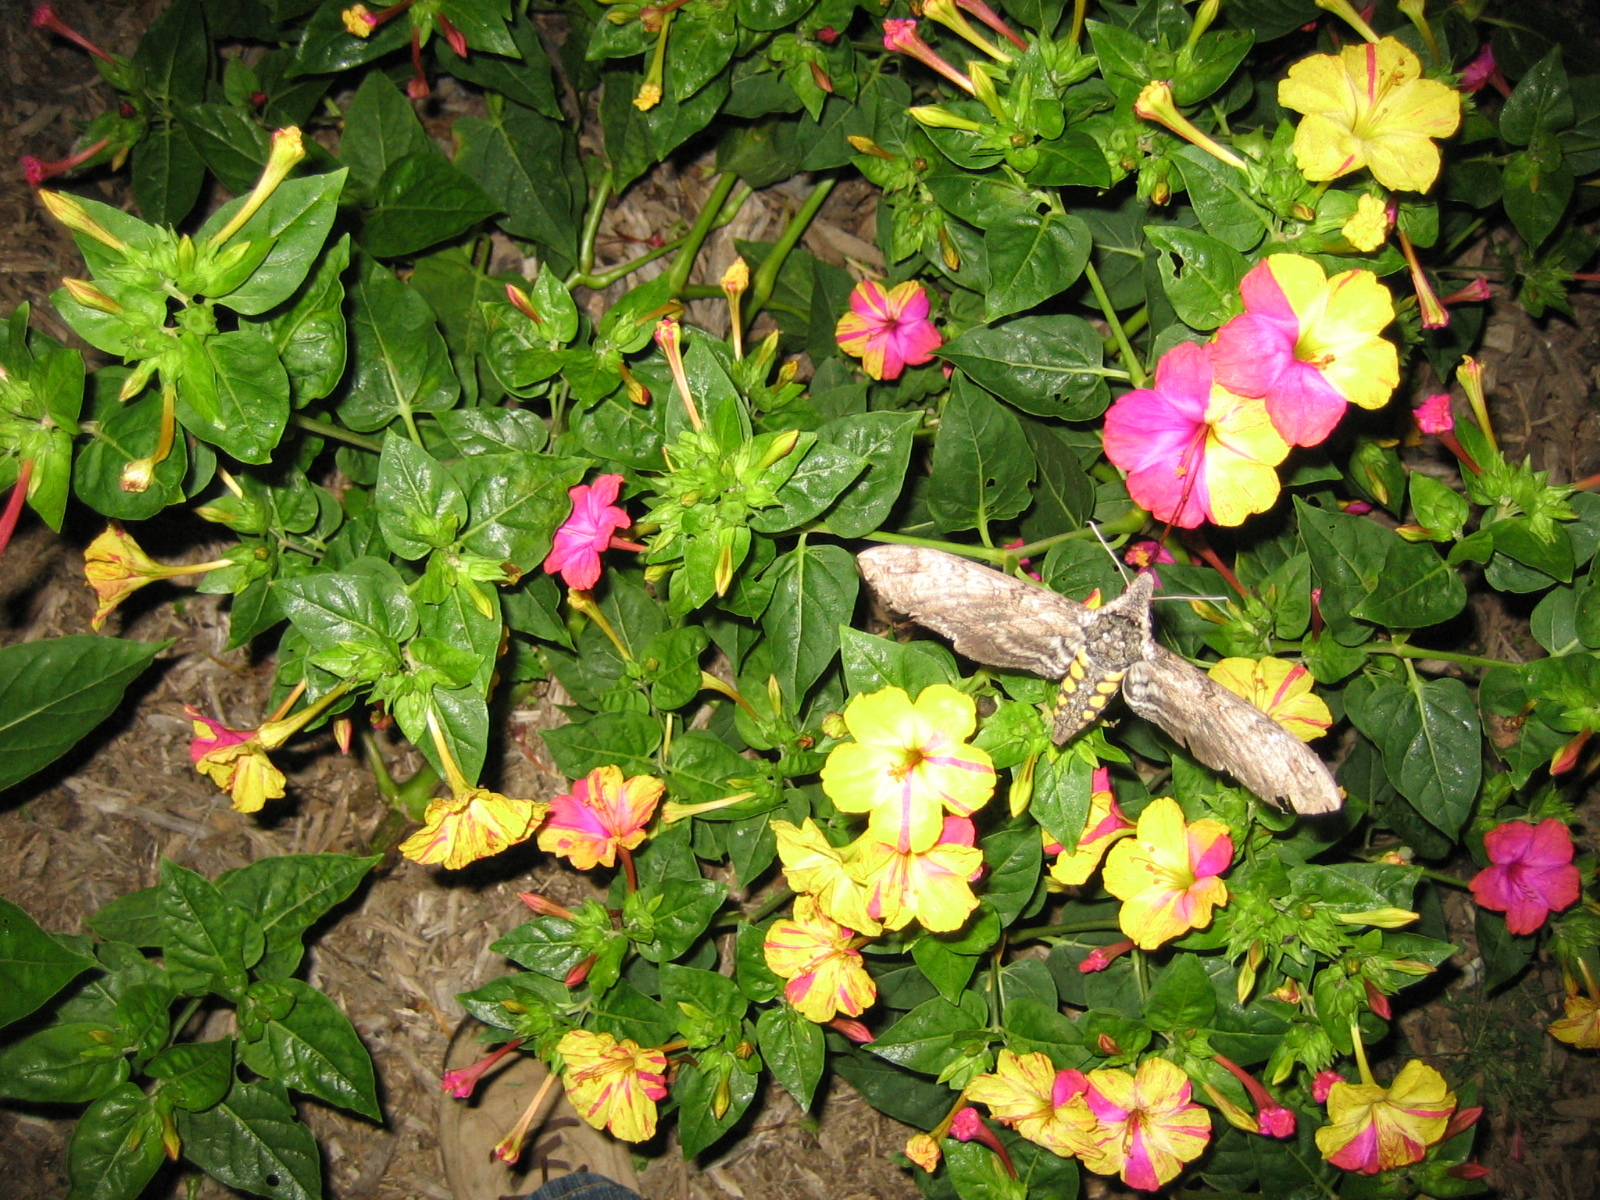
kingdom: Animalia
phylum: Arthropoda
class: Insecta
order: Lepidoptera
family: Sphingidae
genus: Manduca
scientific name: Manduca sexta
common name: Carolina sphinx
